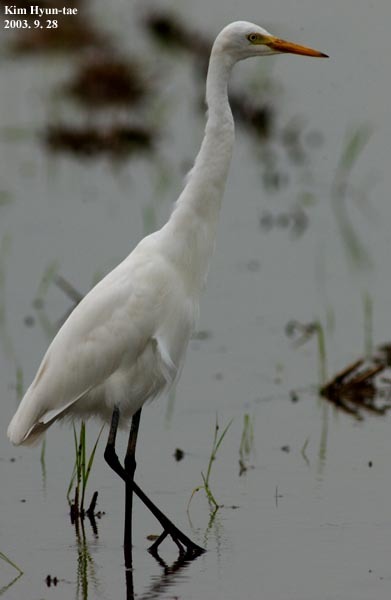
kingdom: Animalia
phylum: Chordata
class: Aves
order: Pelecaniformes
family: Ardeidae
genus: Egretta
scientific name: Egretta intermedia
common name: Intermediate egret
